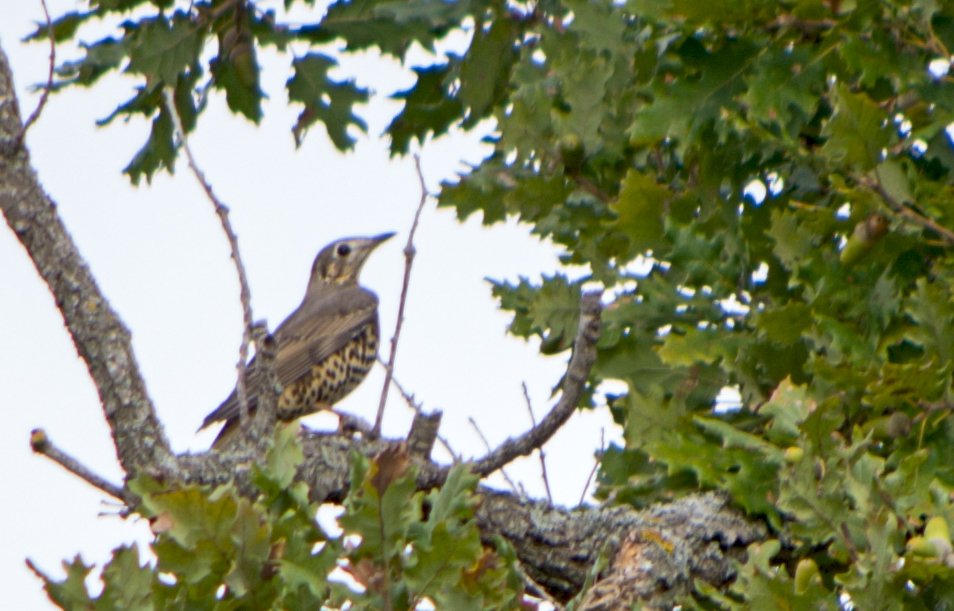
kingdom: Animalia
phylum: Chordata
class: Aves
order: Passeriformes
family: Turdidae
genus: Turdus
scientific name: Turdus viscivorus
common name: Mistle thrush
